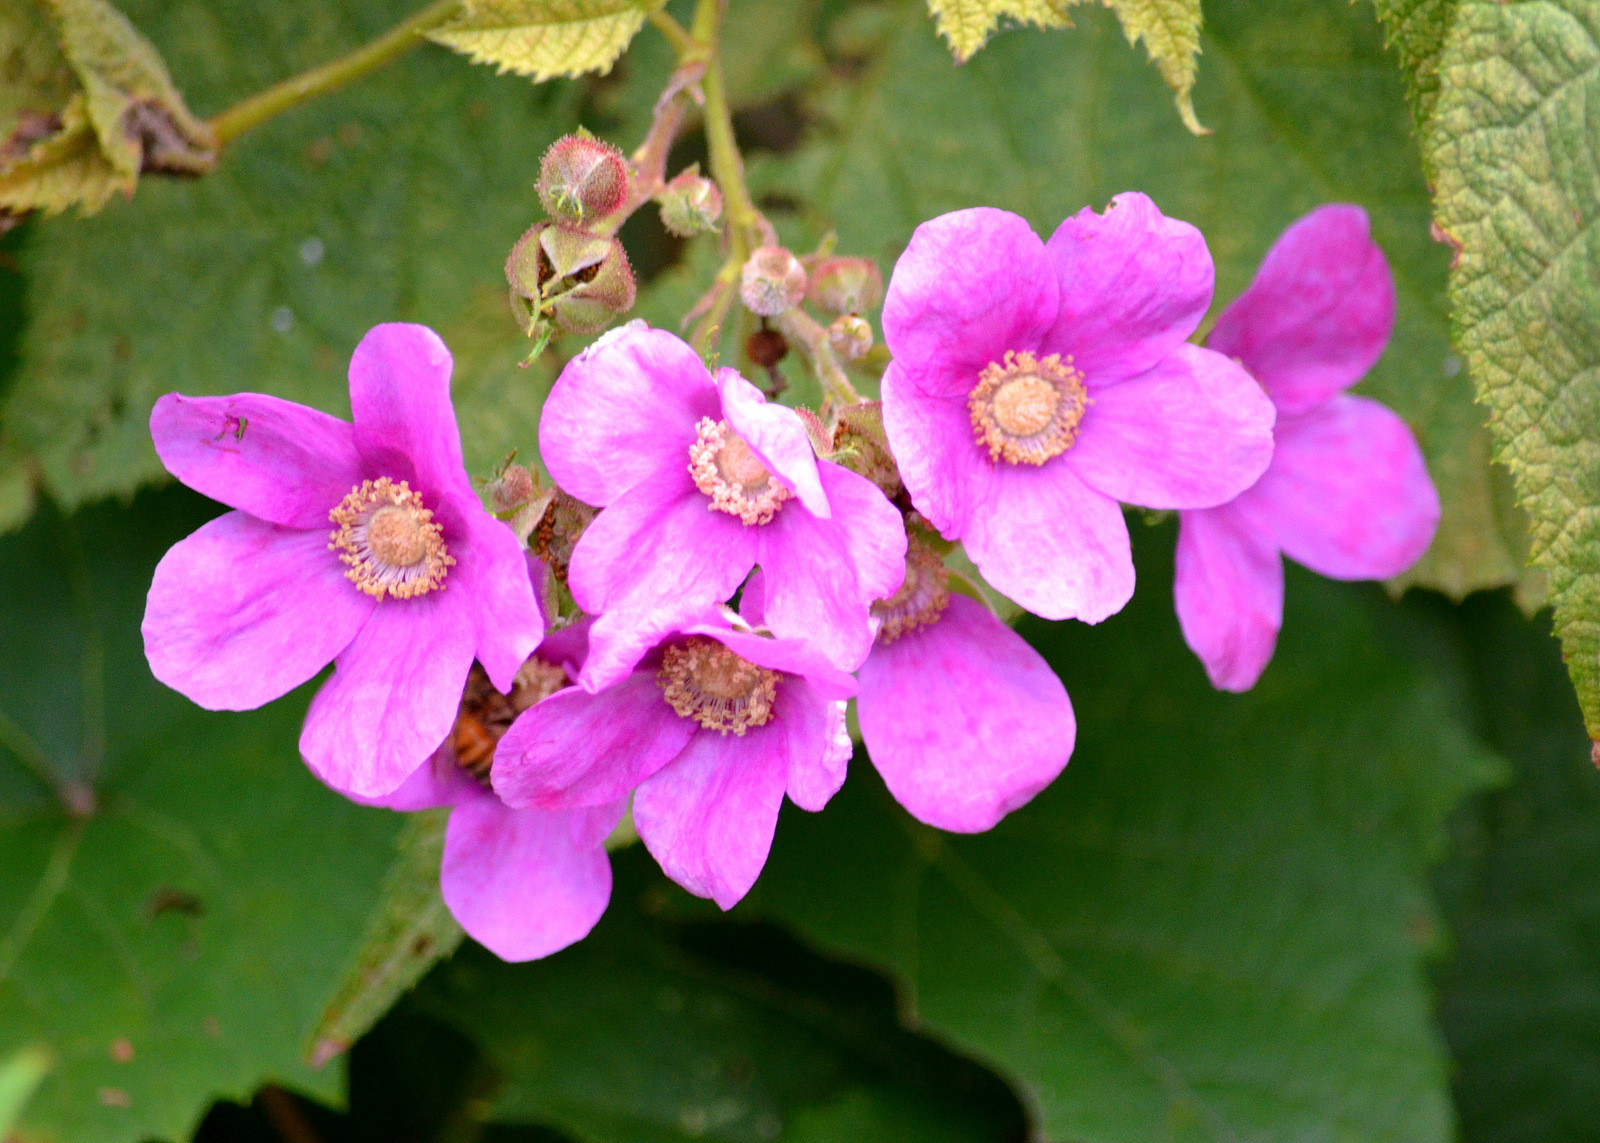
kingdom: Plantae
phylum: Tracheophyta
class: Magnoliopsida
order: Rosales
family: Rosaceae
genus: Rubus
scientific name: Rubus odoratus
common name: Purple-flowered raspberry
